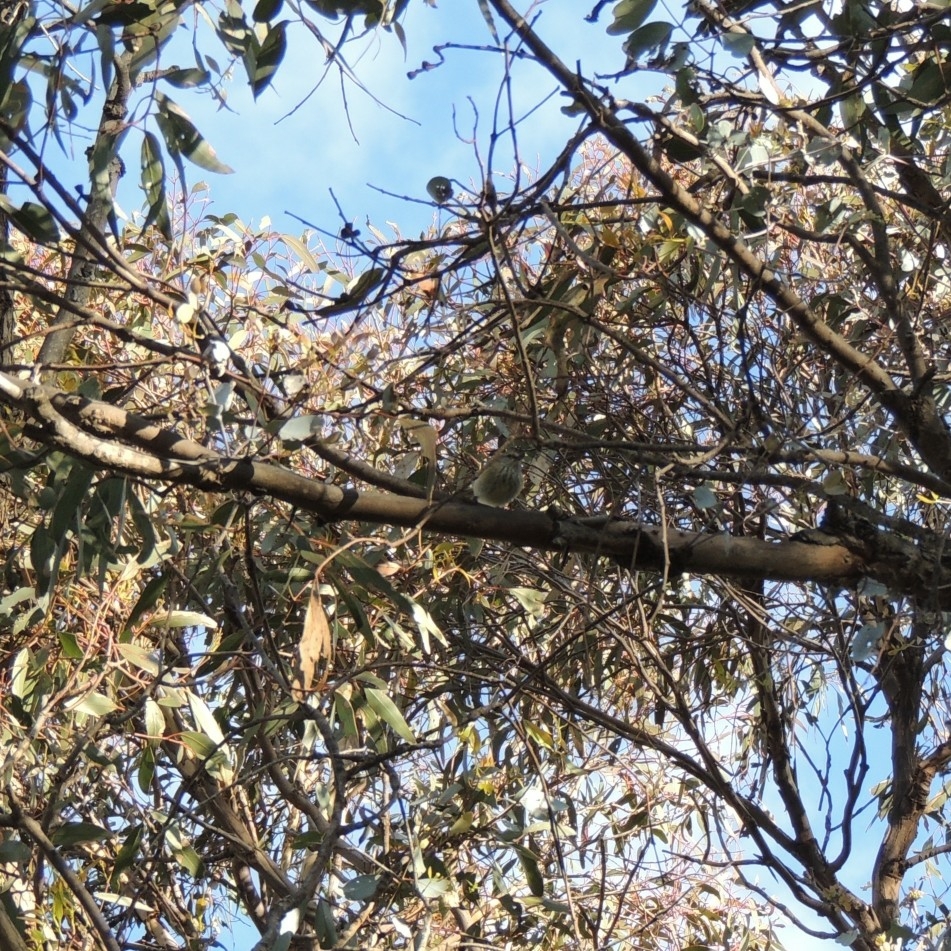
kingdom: Animalia
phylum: Chordata
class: Aves
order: Passeriformes
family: Acanthizidae
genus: Acanthiza
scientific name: Acanthiza pusilla
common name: Brown thornbill
